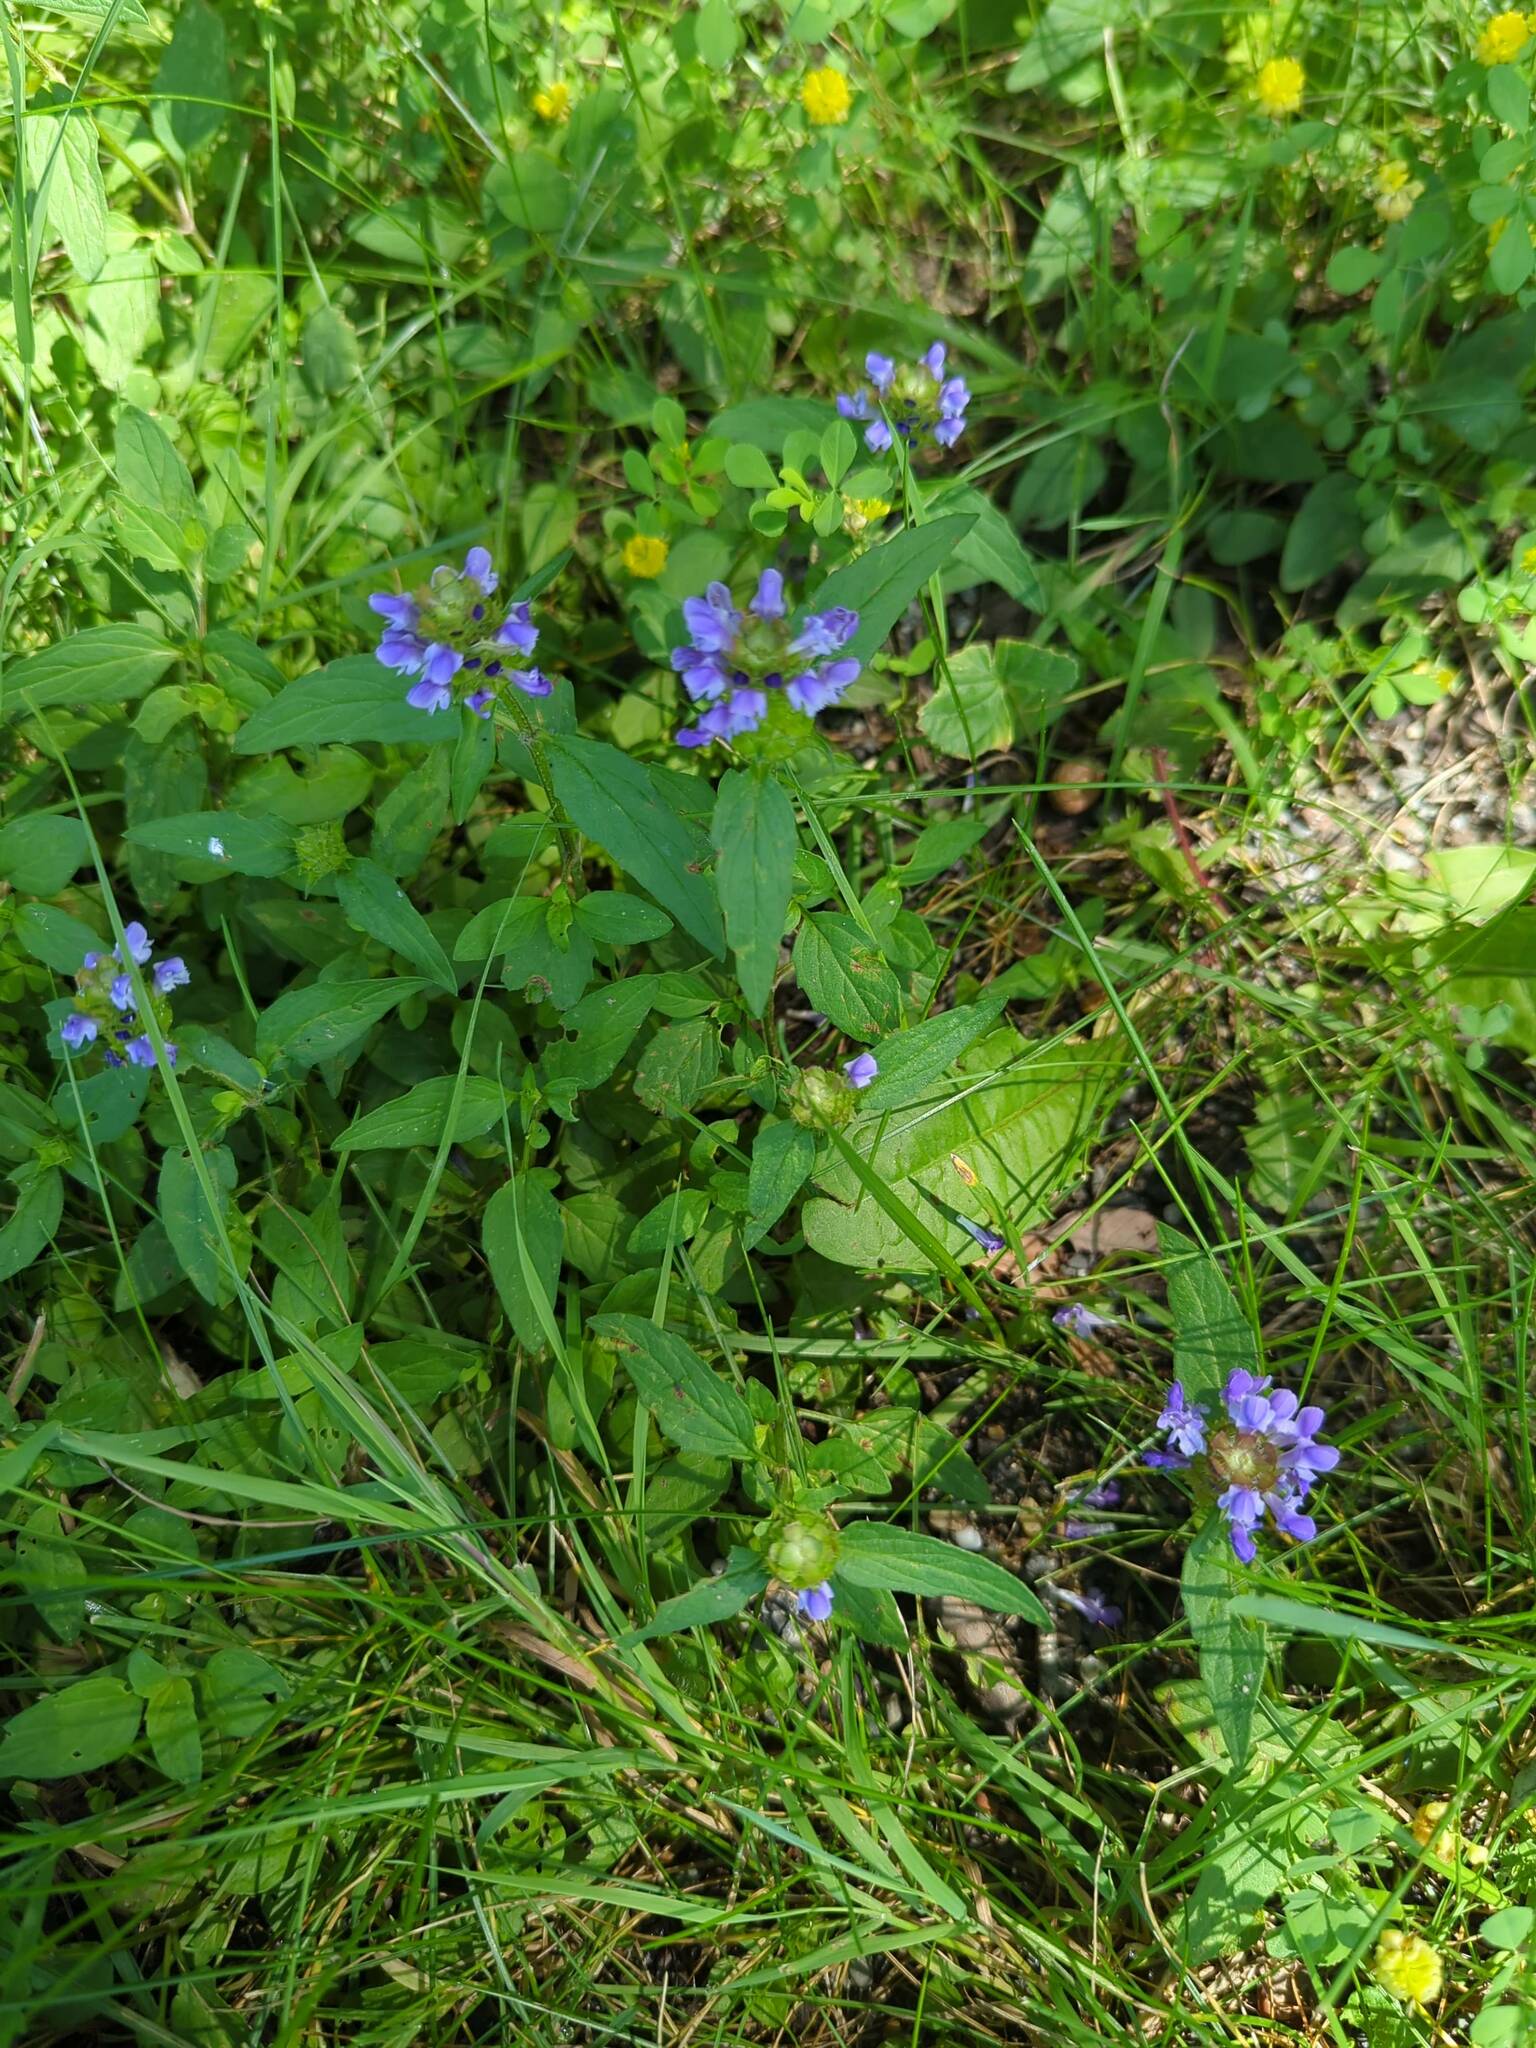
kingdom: Plantae
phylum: Tracheophyta
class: Magnoliopsida
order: Lamiales
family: Lamiaceae
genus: Prunella
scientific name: Prunella vulgaris
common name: Heal-all
